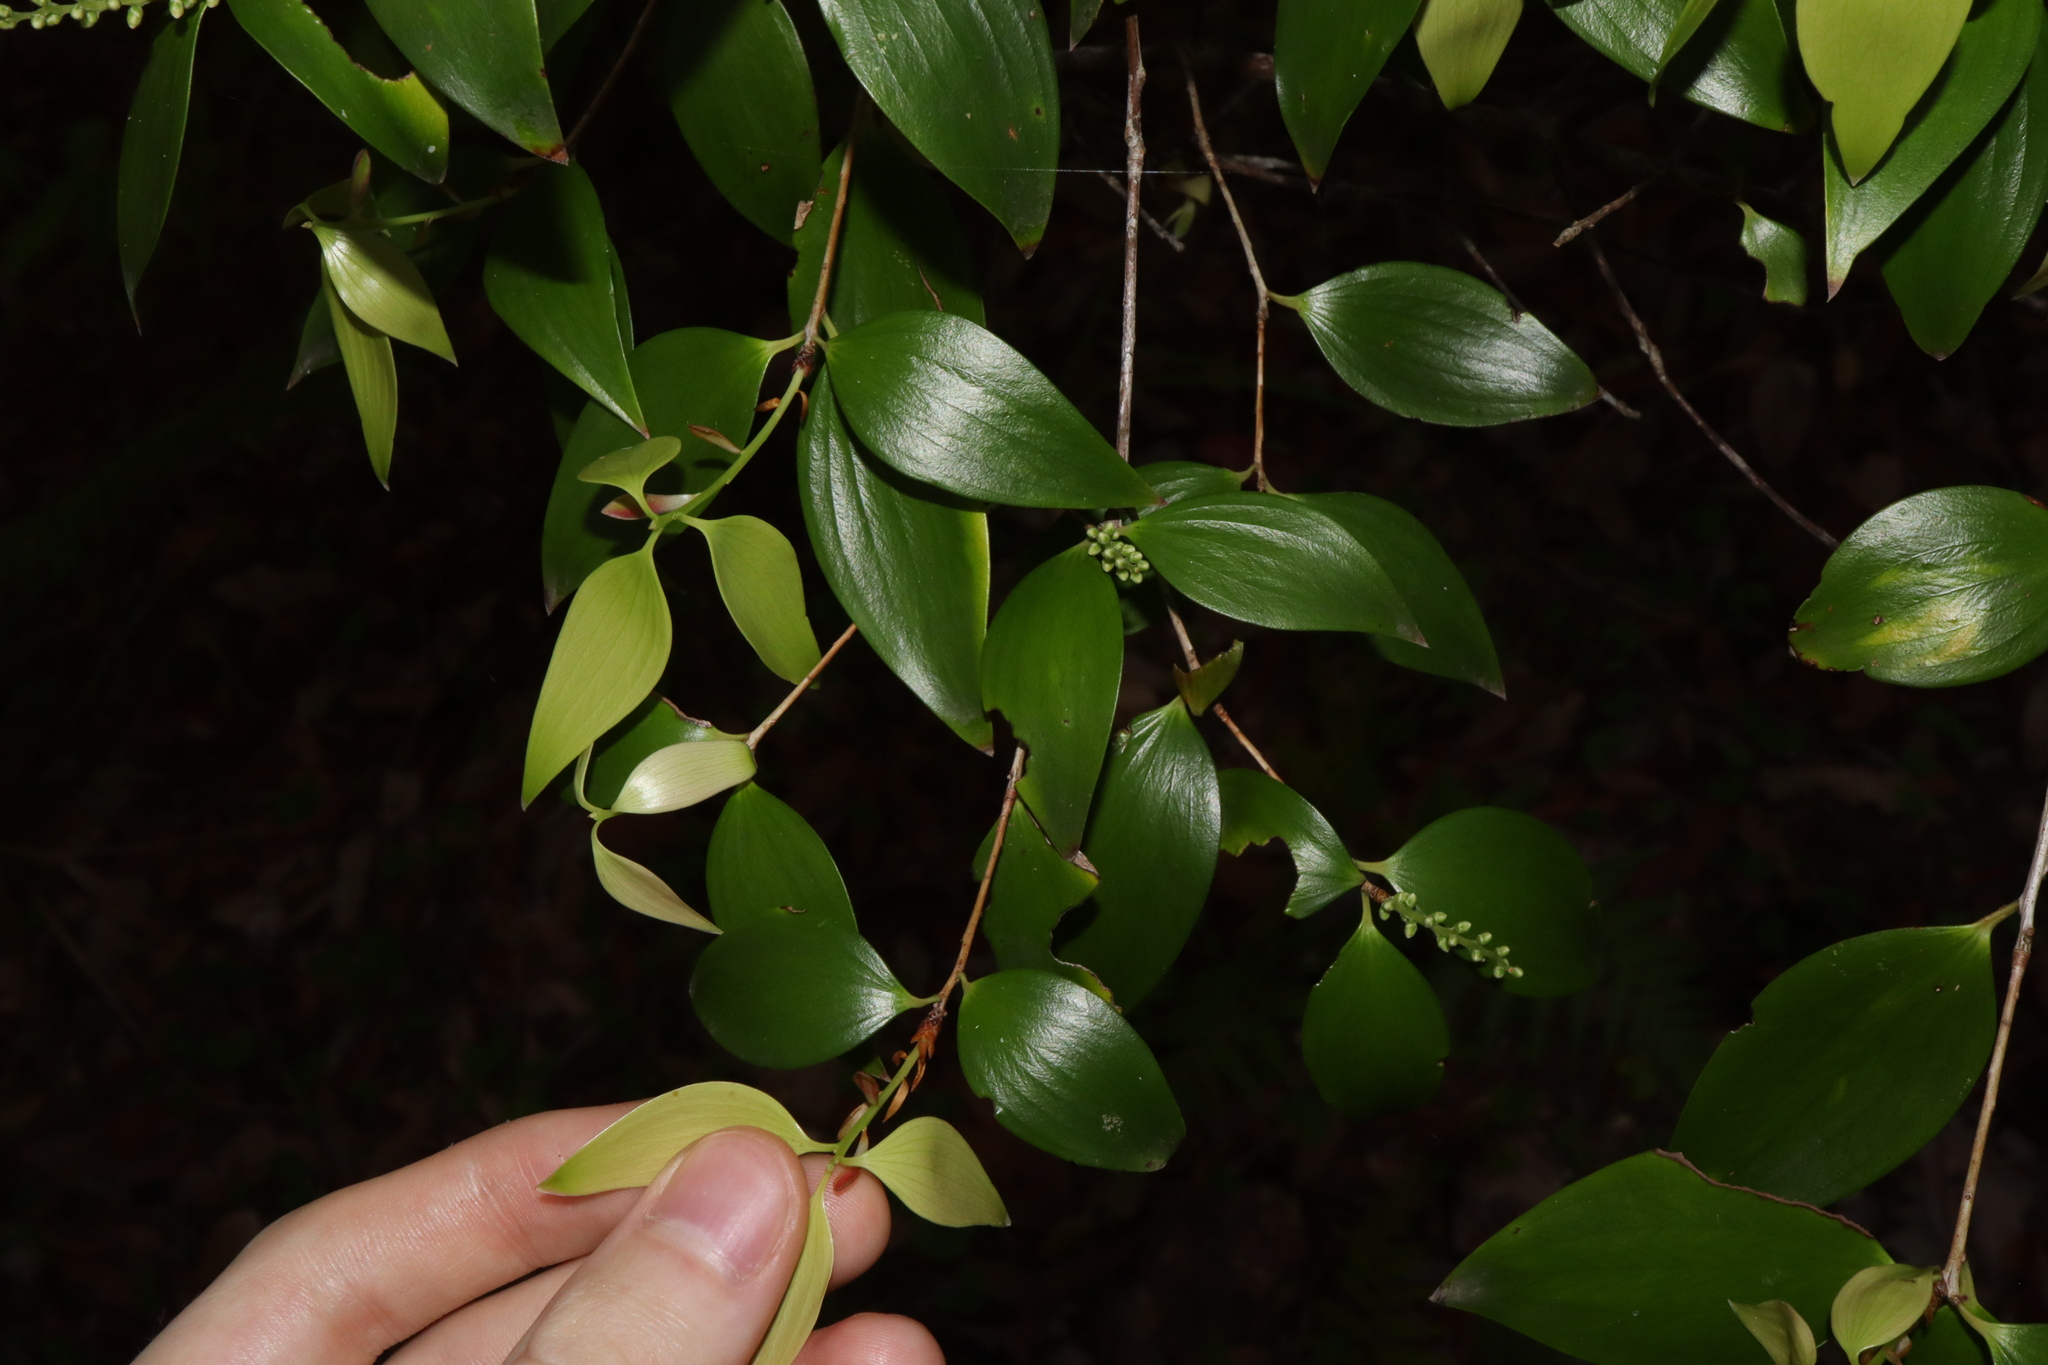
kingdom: Plantae
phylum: Tracheophyta
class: Magnoliopsida
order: Ericales
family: Ericaceae
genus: Trochocarpa
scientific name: Trochocarpa laurina
